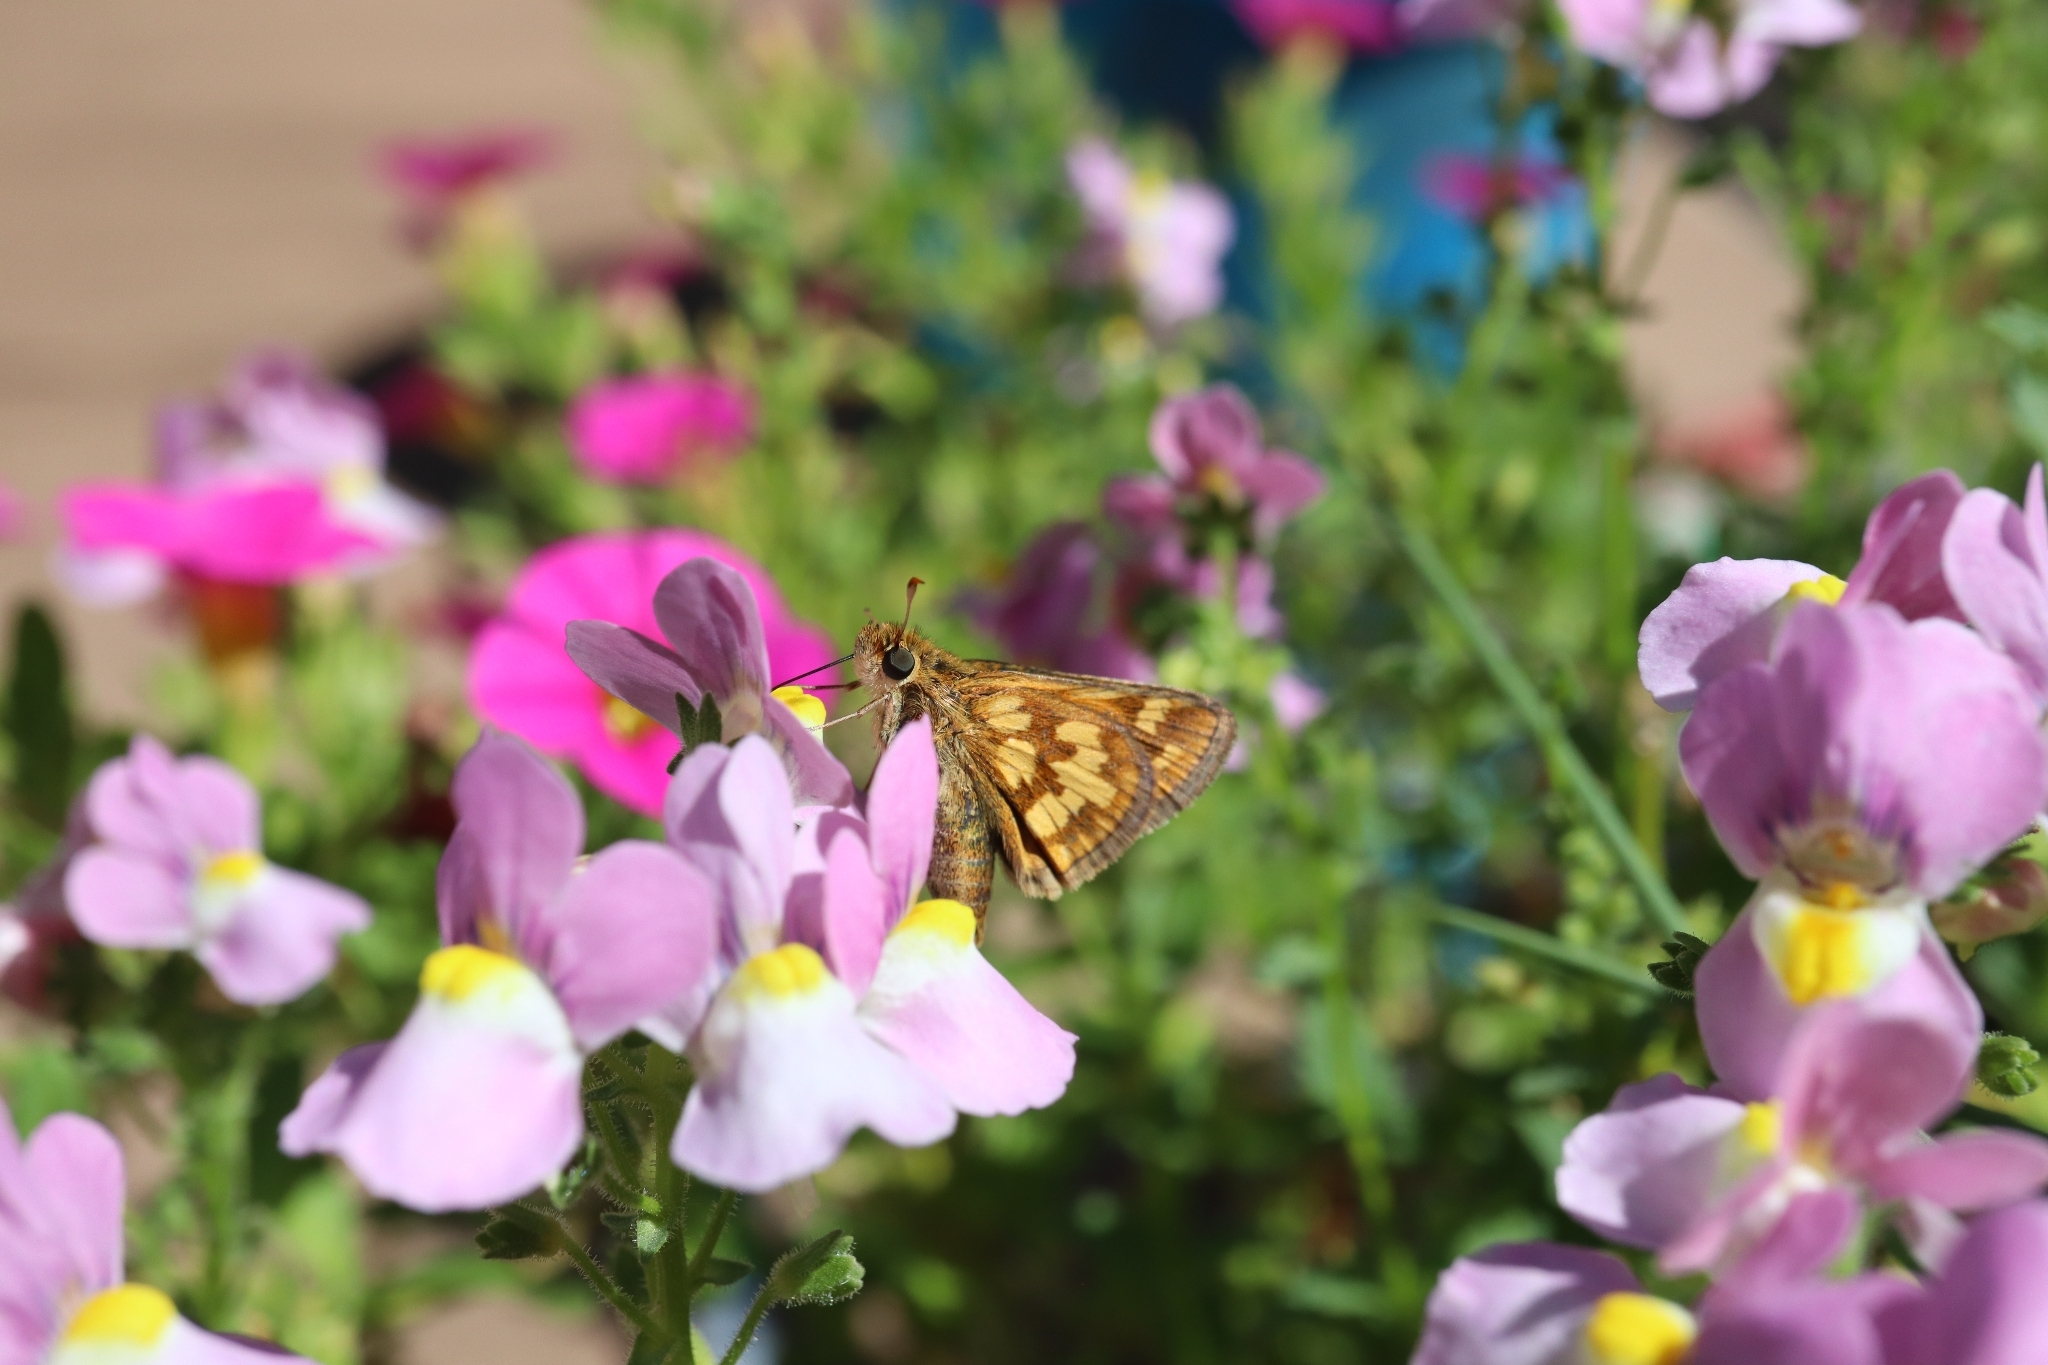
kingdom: Animalia
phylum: Arthropoda
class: Insecta
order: Lepidoptera
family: Hesperiidae
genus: Polites
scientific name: Polites coras
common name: Peck's skipper
